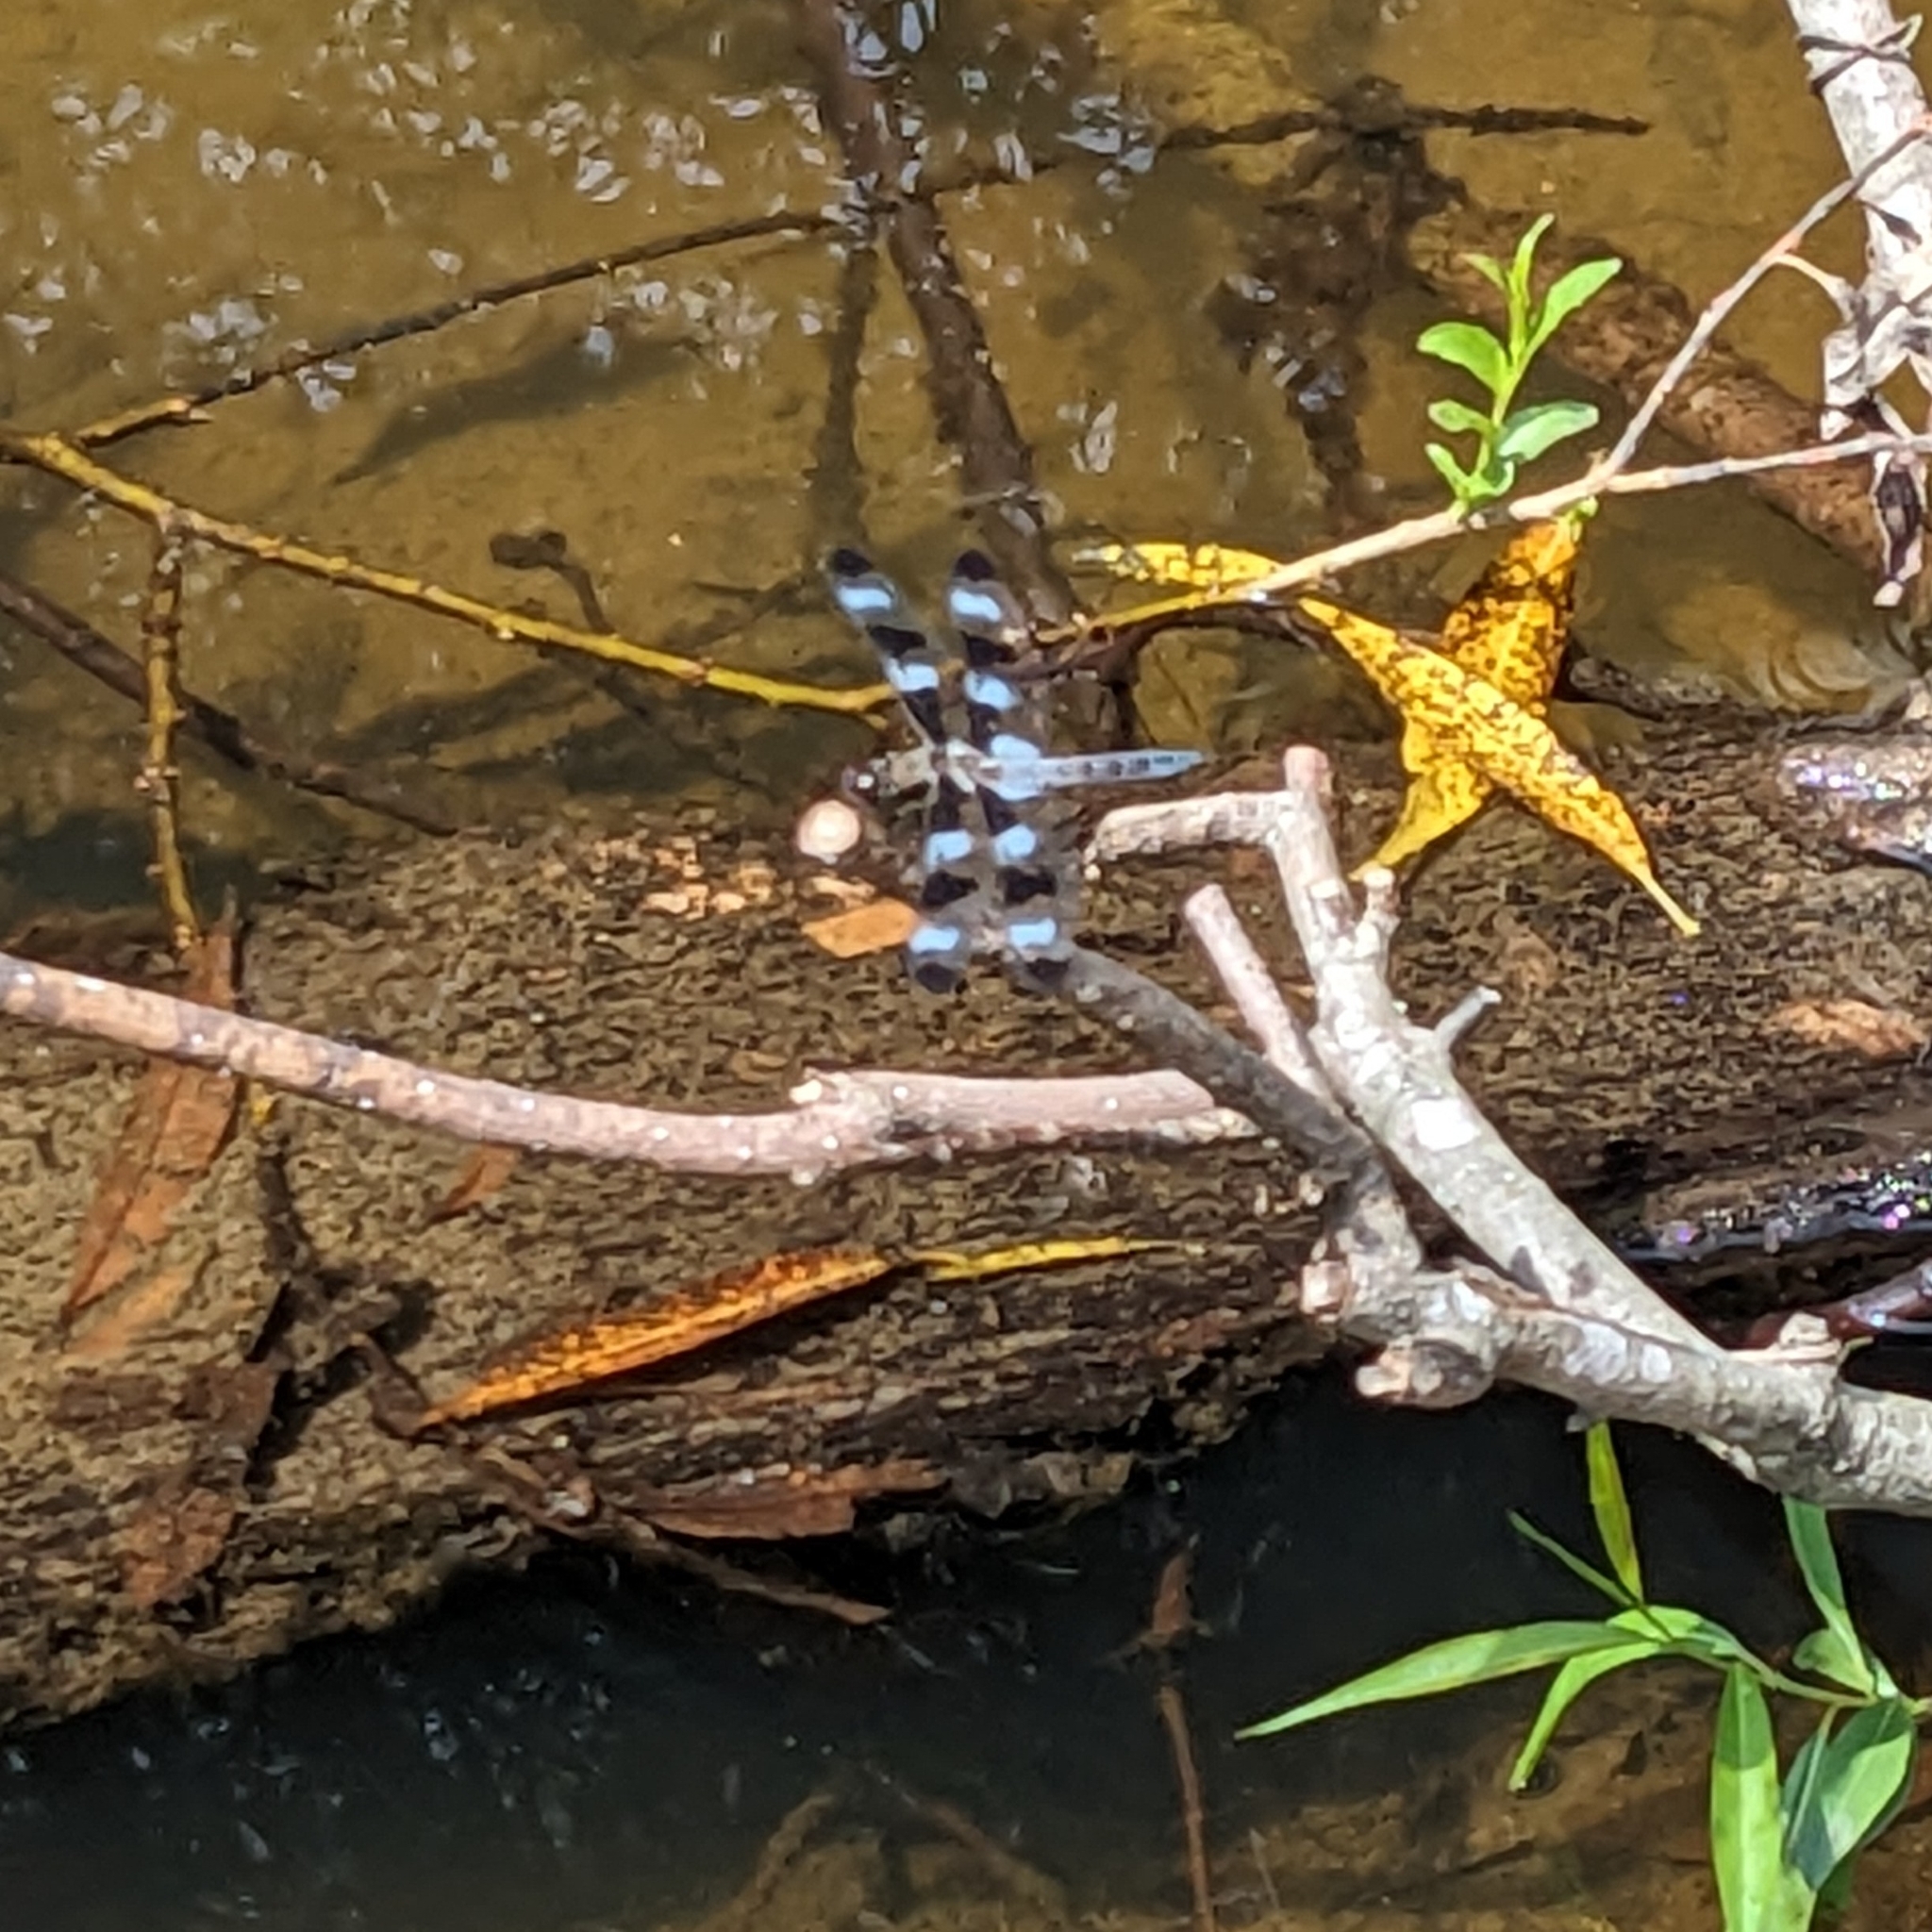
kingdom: Animalia
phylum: Arthropoda
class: Insecta
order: Odonata
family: Libellulidae
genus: Libellula
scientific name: Libellula pulchella
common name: Twelve-spotted skimmer
